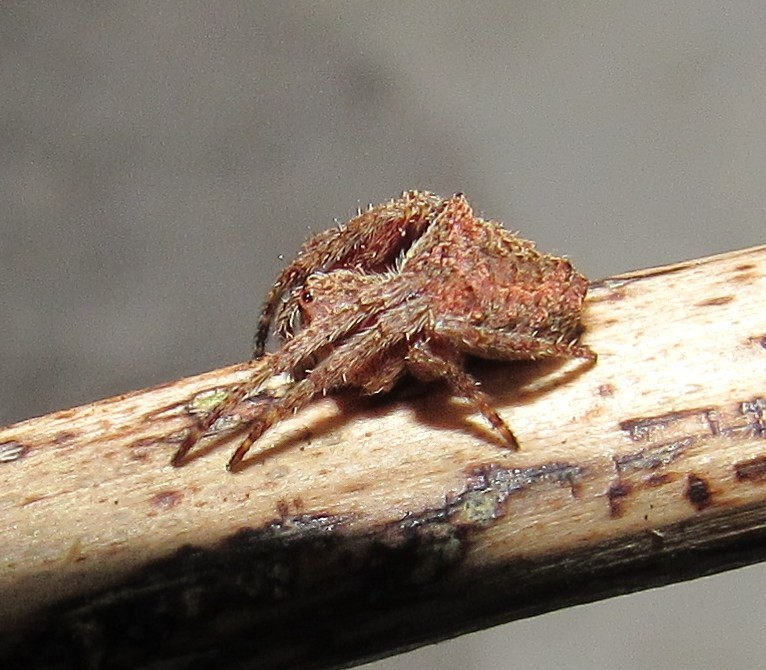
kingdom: Animalia
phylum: Arthropoda
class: Arachnida
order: Araneae
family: Araneidae
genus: Parawixia
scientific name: Parawixia audax
